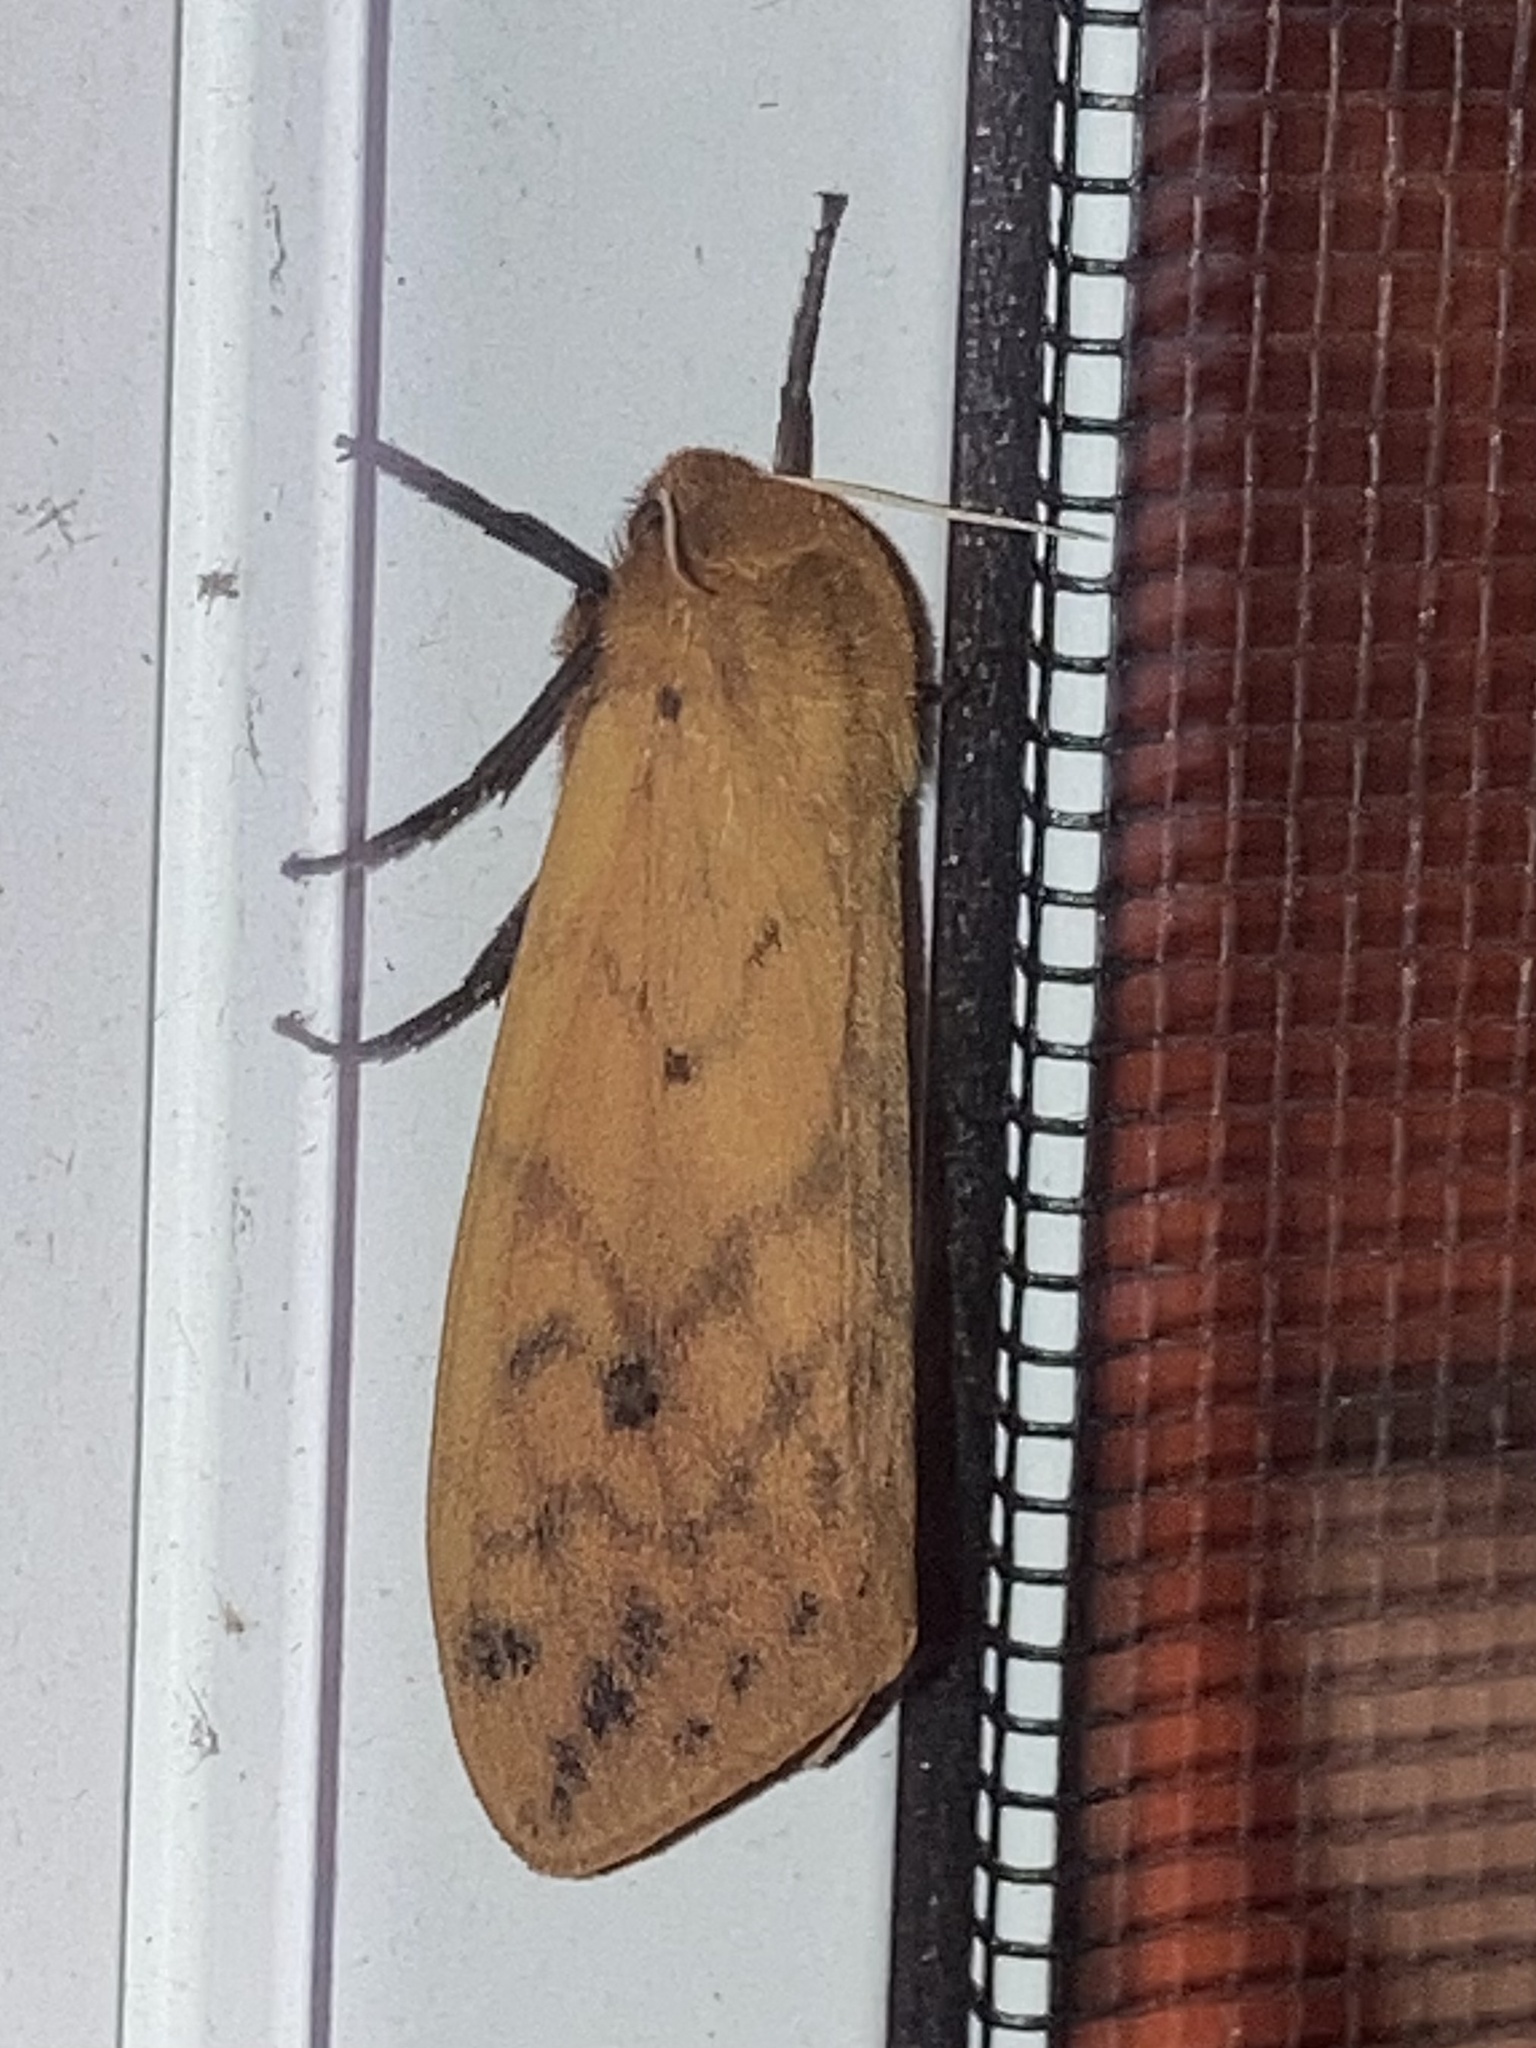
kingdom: Animalia
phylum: Arthropoda
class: Insecta
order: Lepidoptera
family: Erebidae
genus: Pyrrharctia
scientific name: Pyrrharctia isabella
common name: Isabella tiger moth
